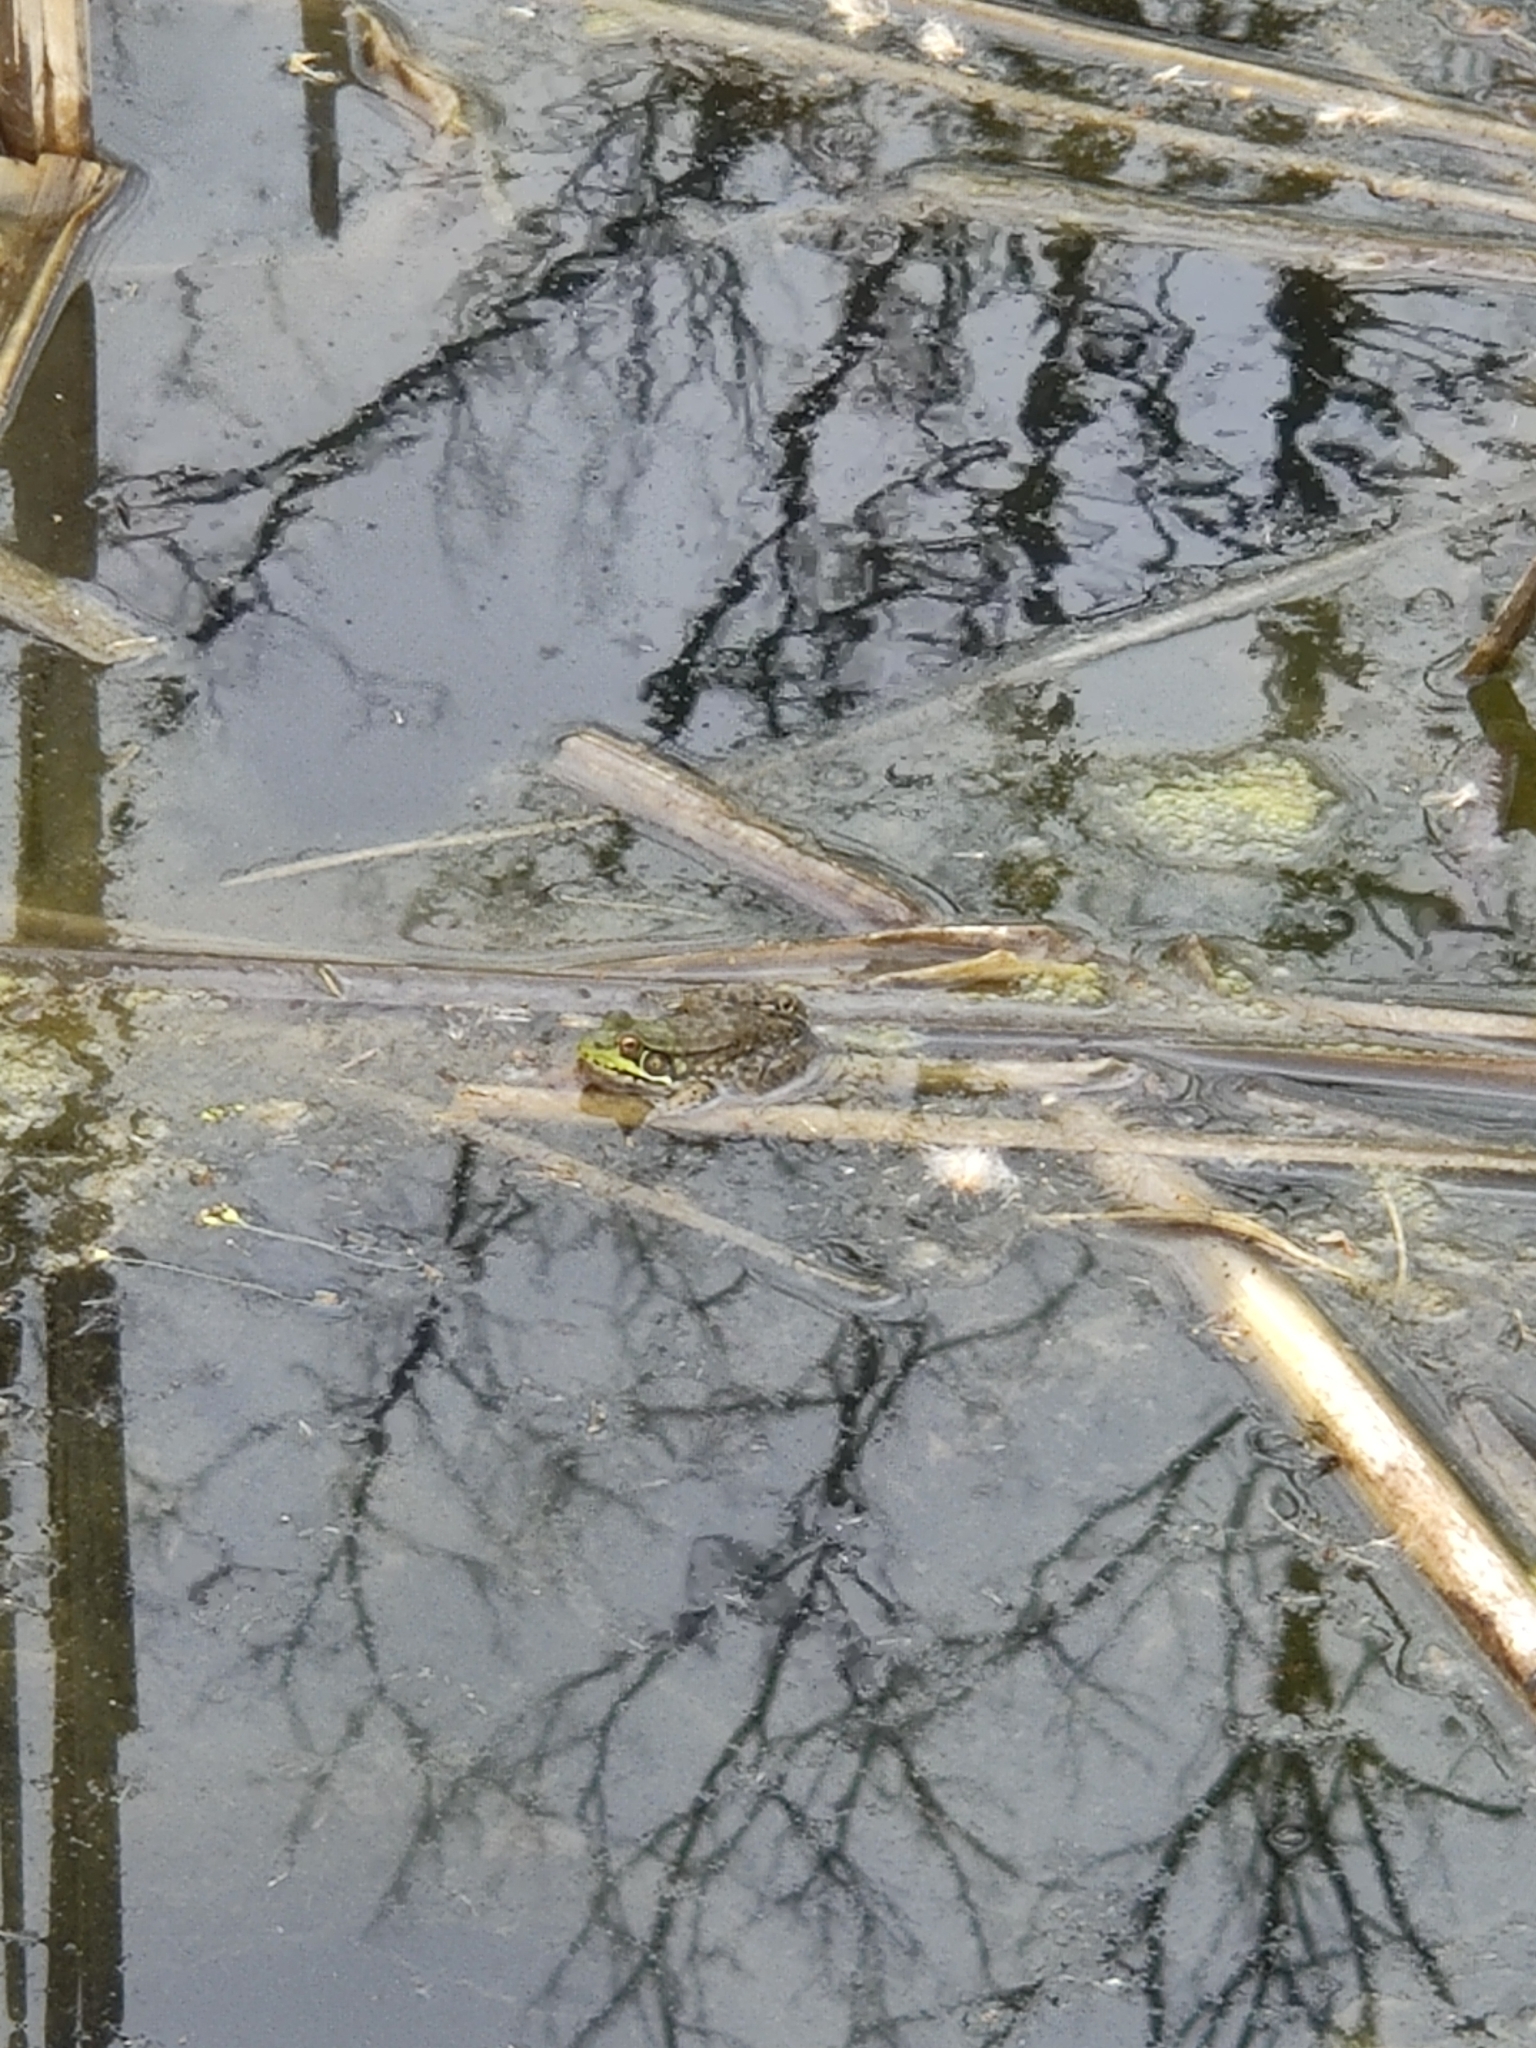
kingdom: Animalia
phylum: Chordata
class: Amphibia
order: Anura
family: Ranidae
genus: Lithobates
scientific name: Lithobates clamitans
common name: Green frog
